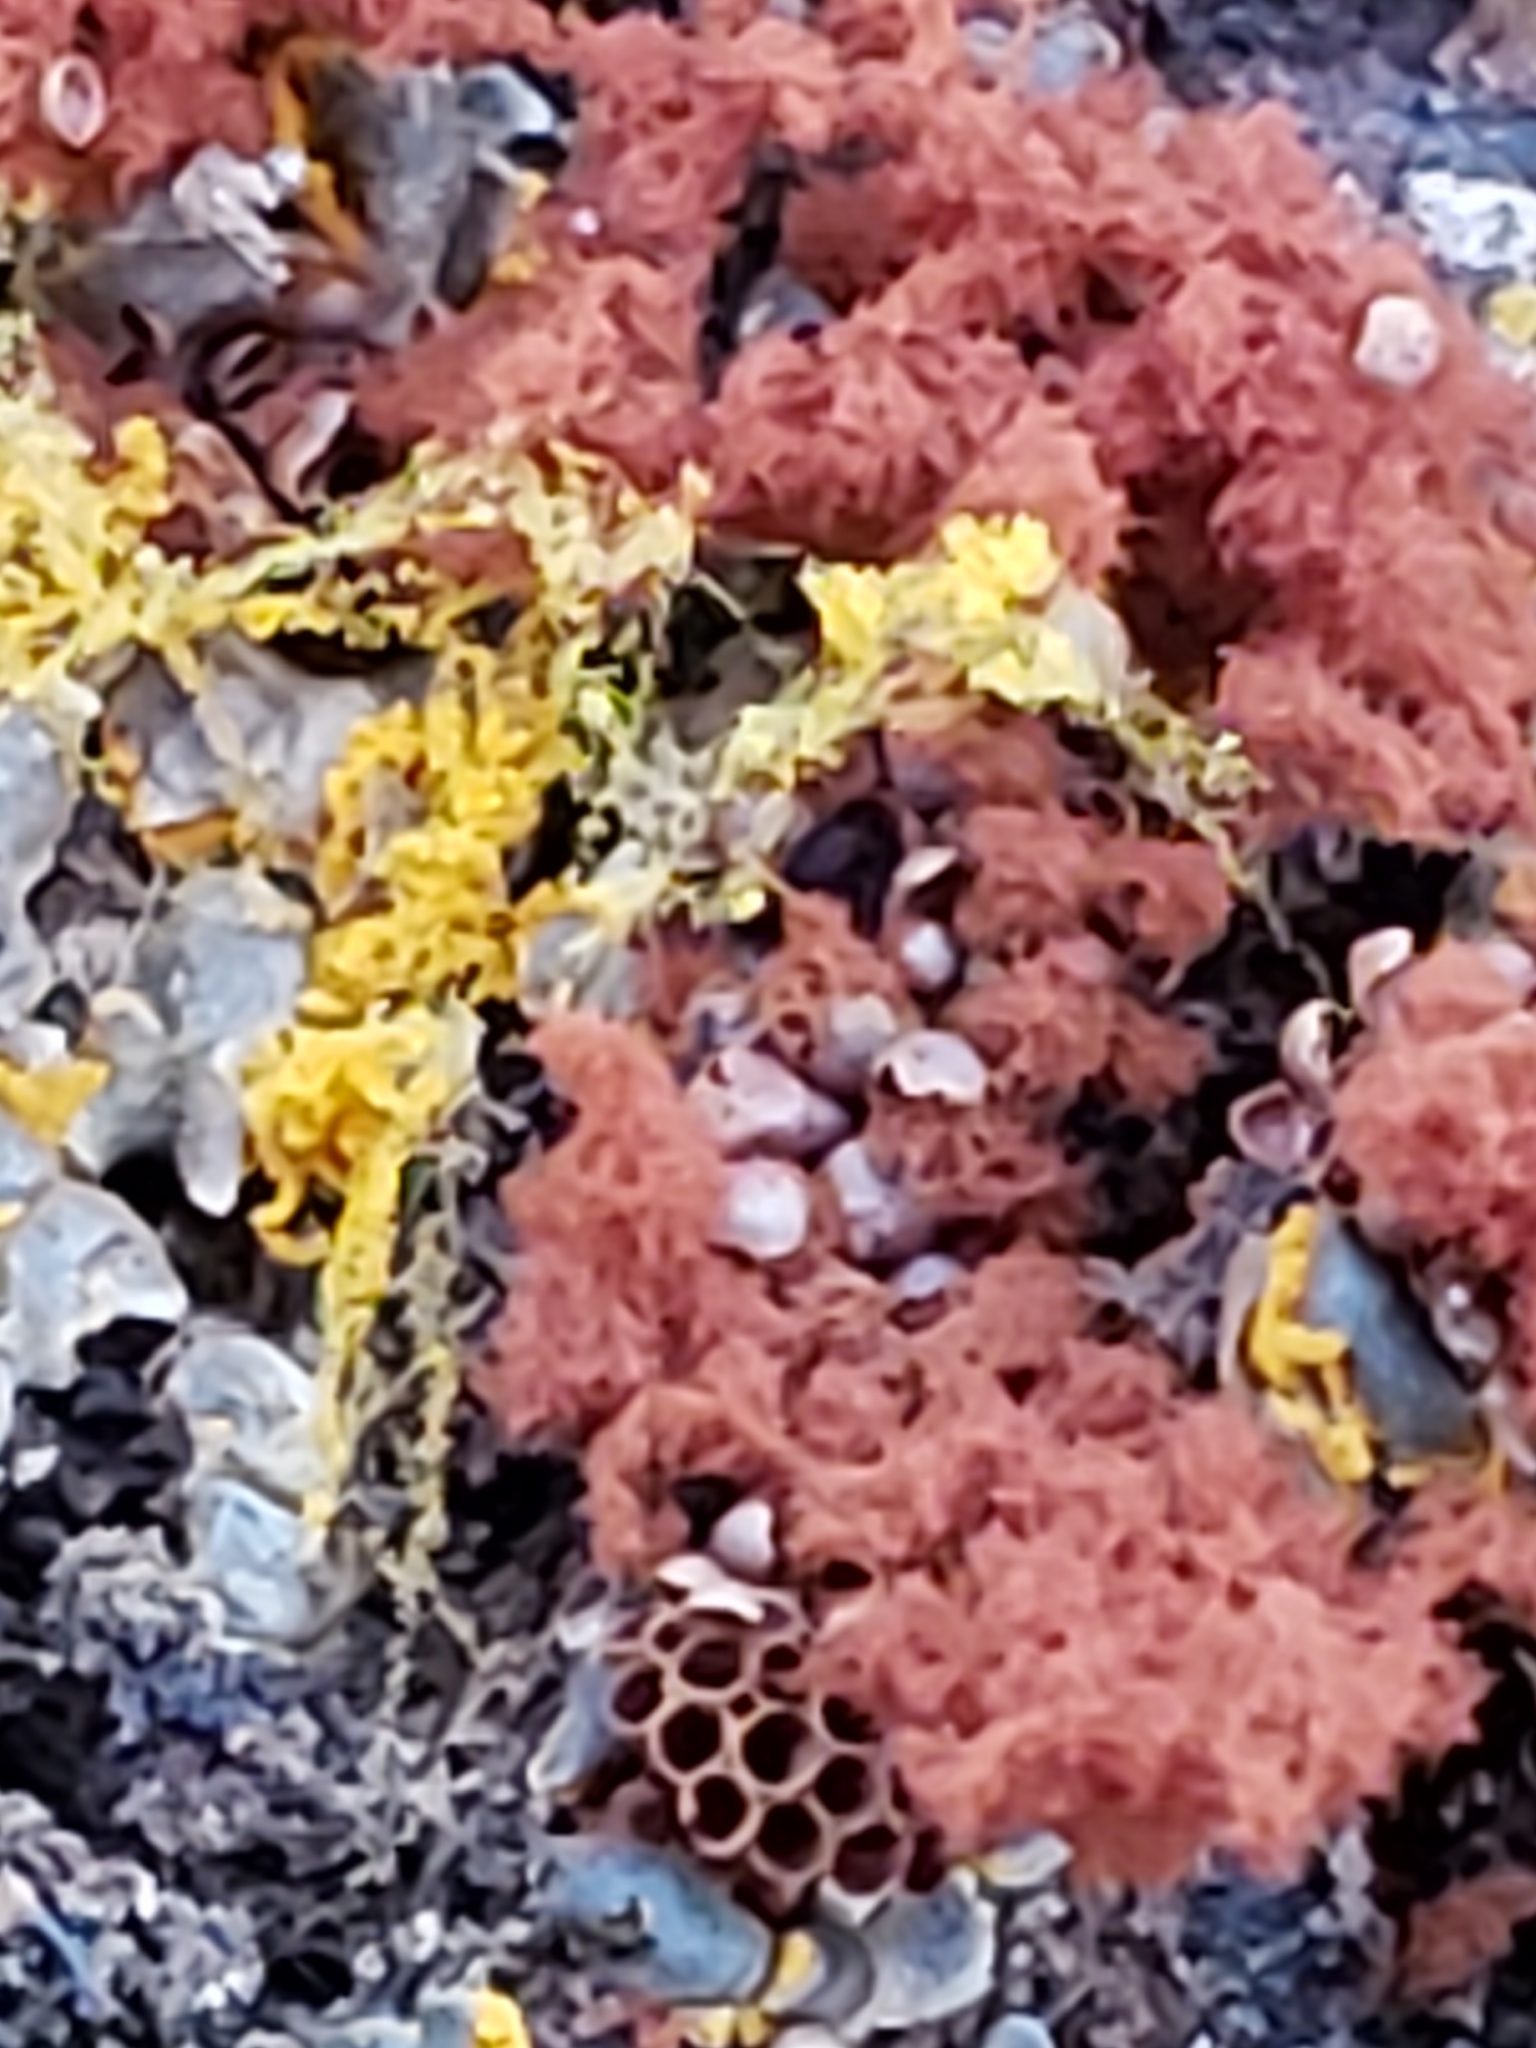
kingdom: Protozoa
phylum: Mycetozoa
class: Myxomycetes
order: Trichiales
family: Trichiaceae
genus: Metatrichia
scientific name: Metatrichia vesparia
